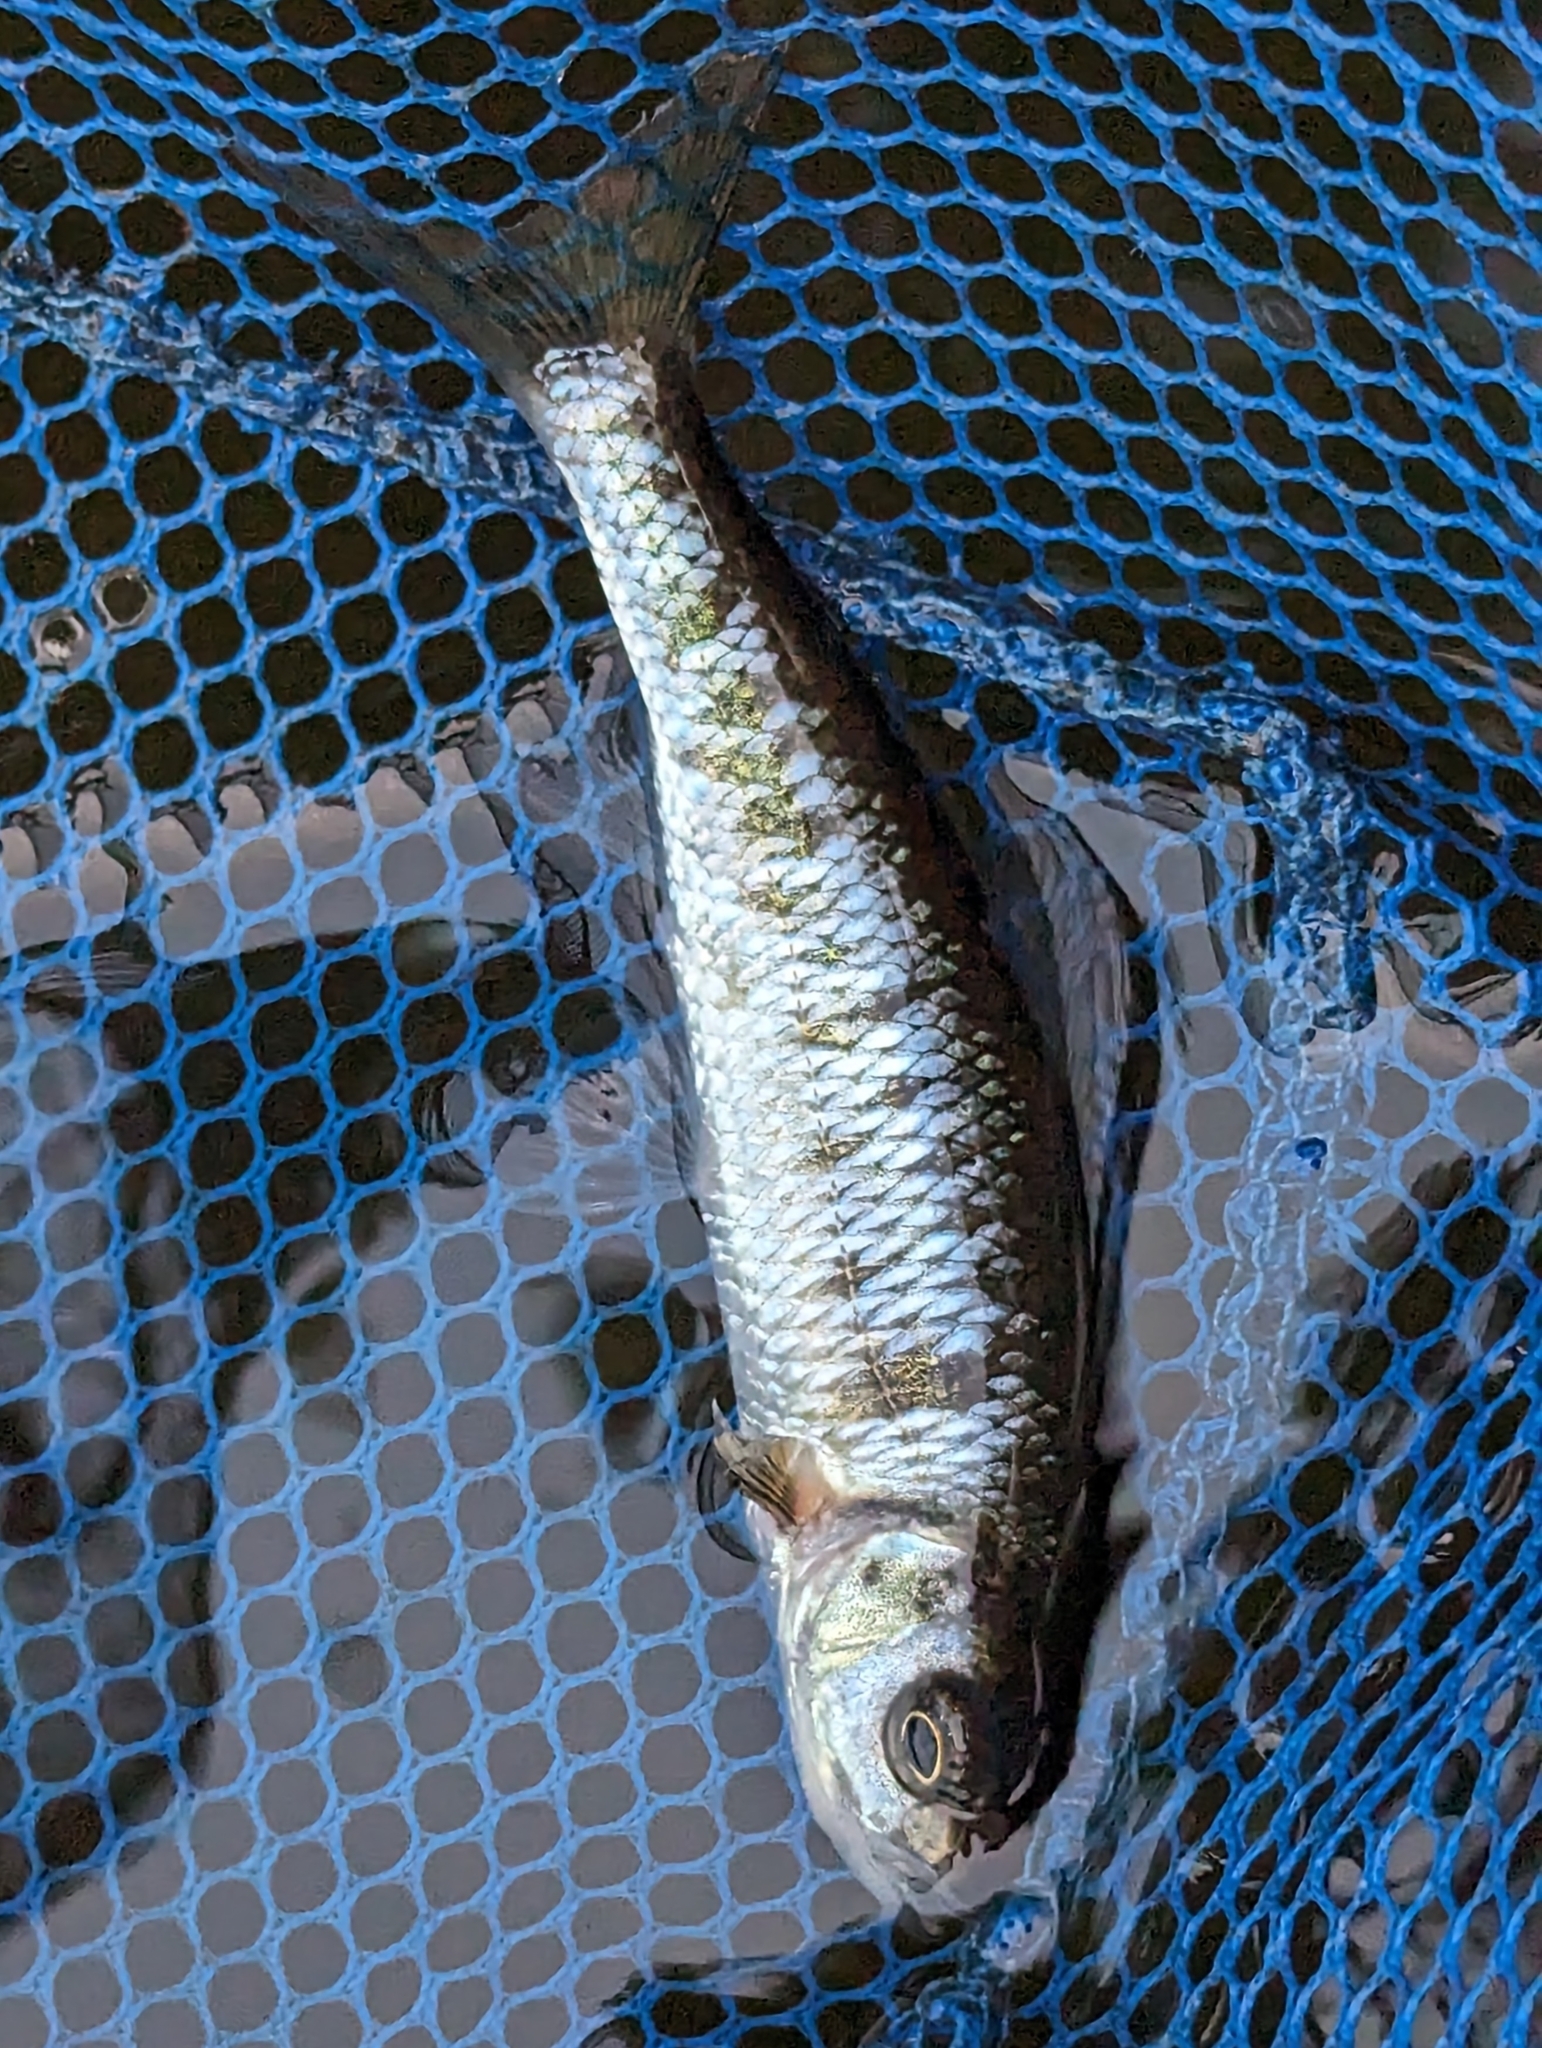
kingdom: Animalia
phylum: Chordata
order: Cypriniformes
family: Cyprinidae
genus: Luxilus
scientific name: Luxilus cornutus
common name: Common shiner
